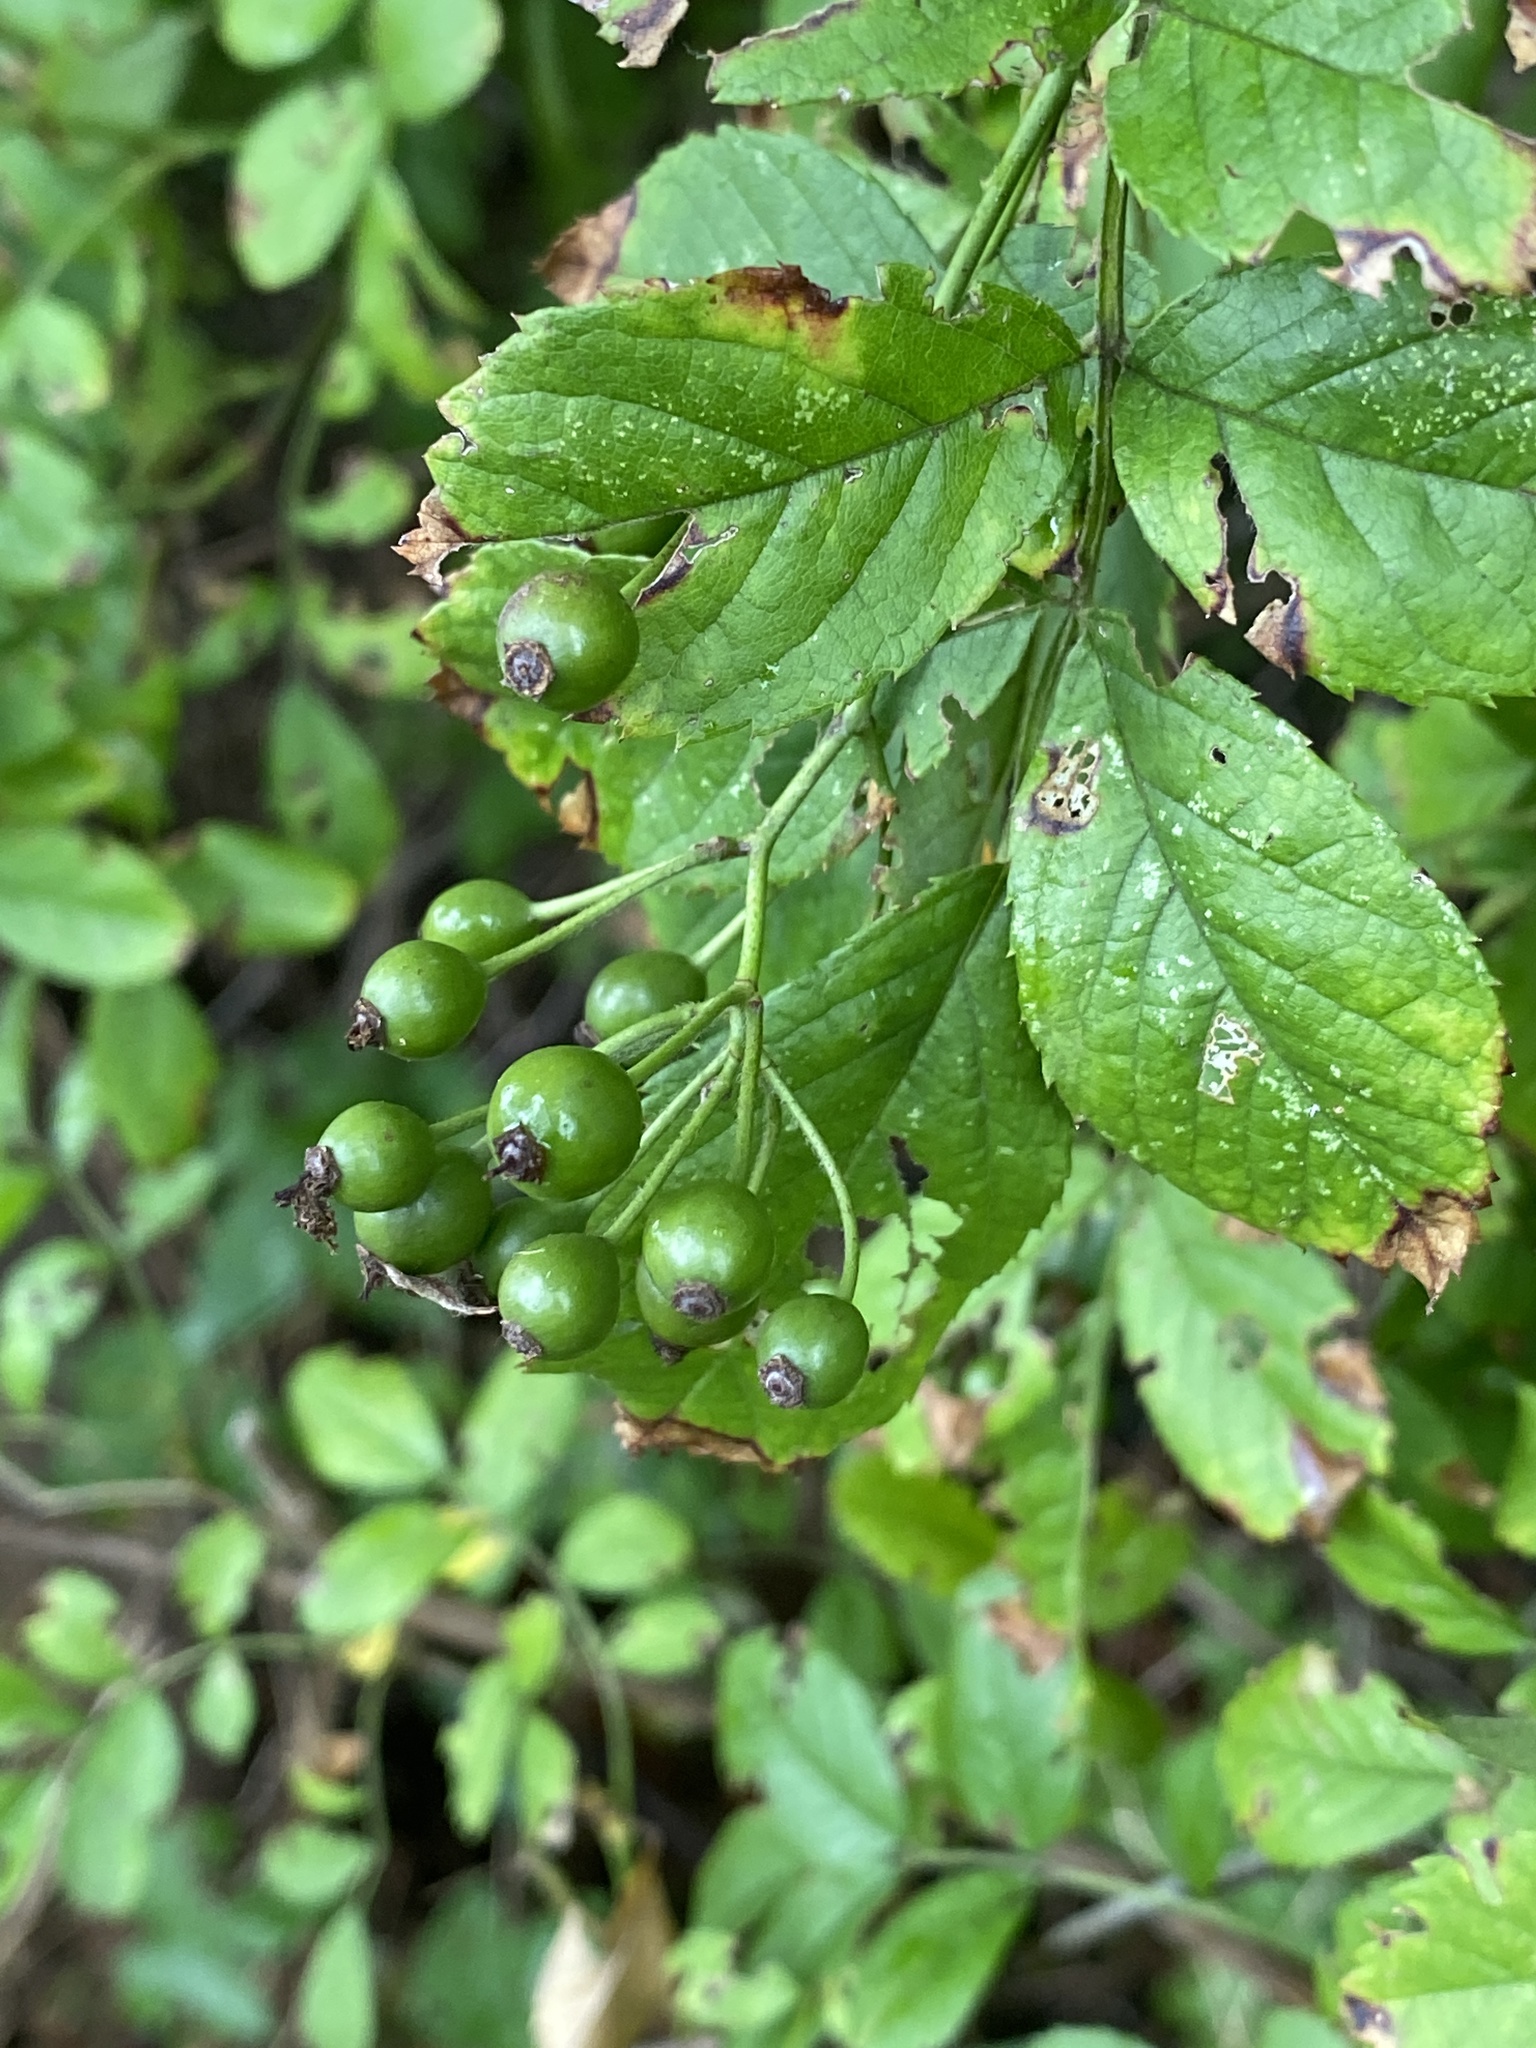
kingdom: Plantae
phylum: Tracheophyta
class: Magnoliopsida
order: Rosales
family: Rosaceae
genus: Rosa
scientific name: Rosa multiflora
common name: Multiflora rose
